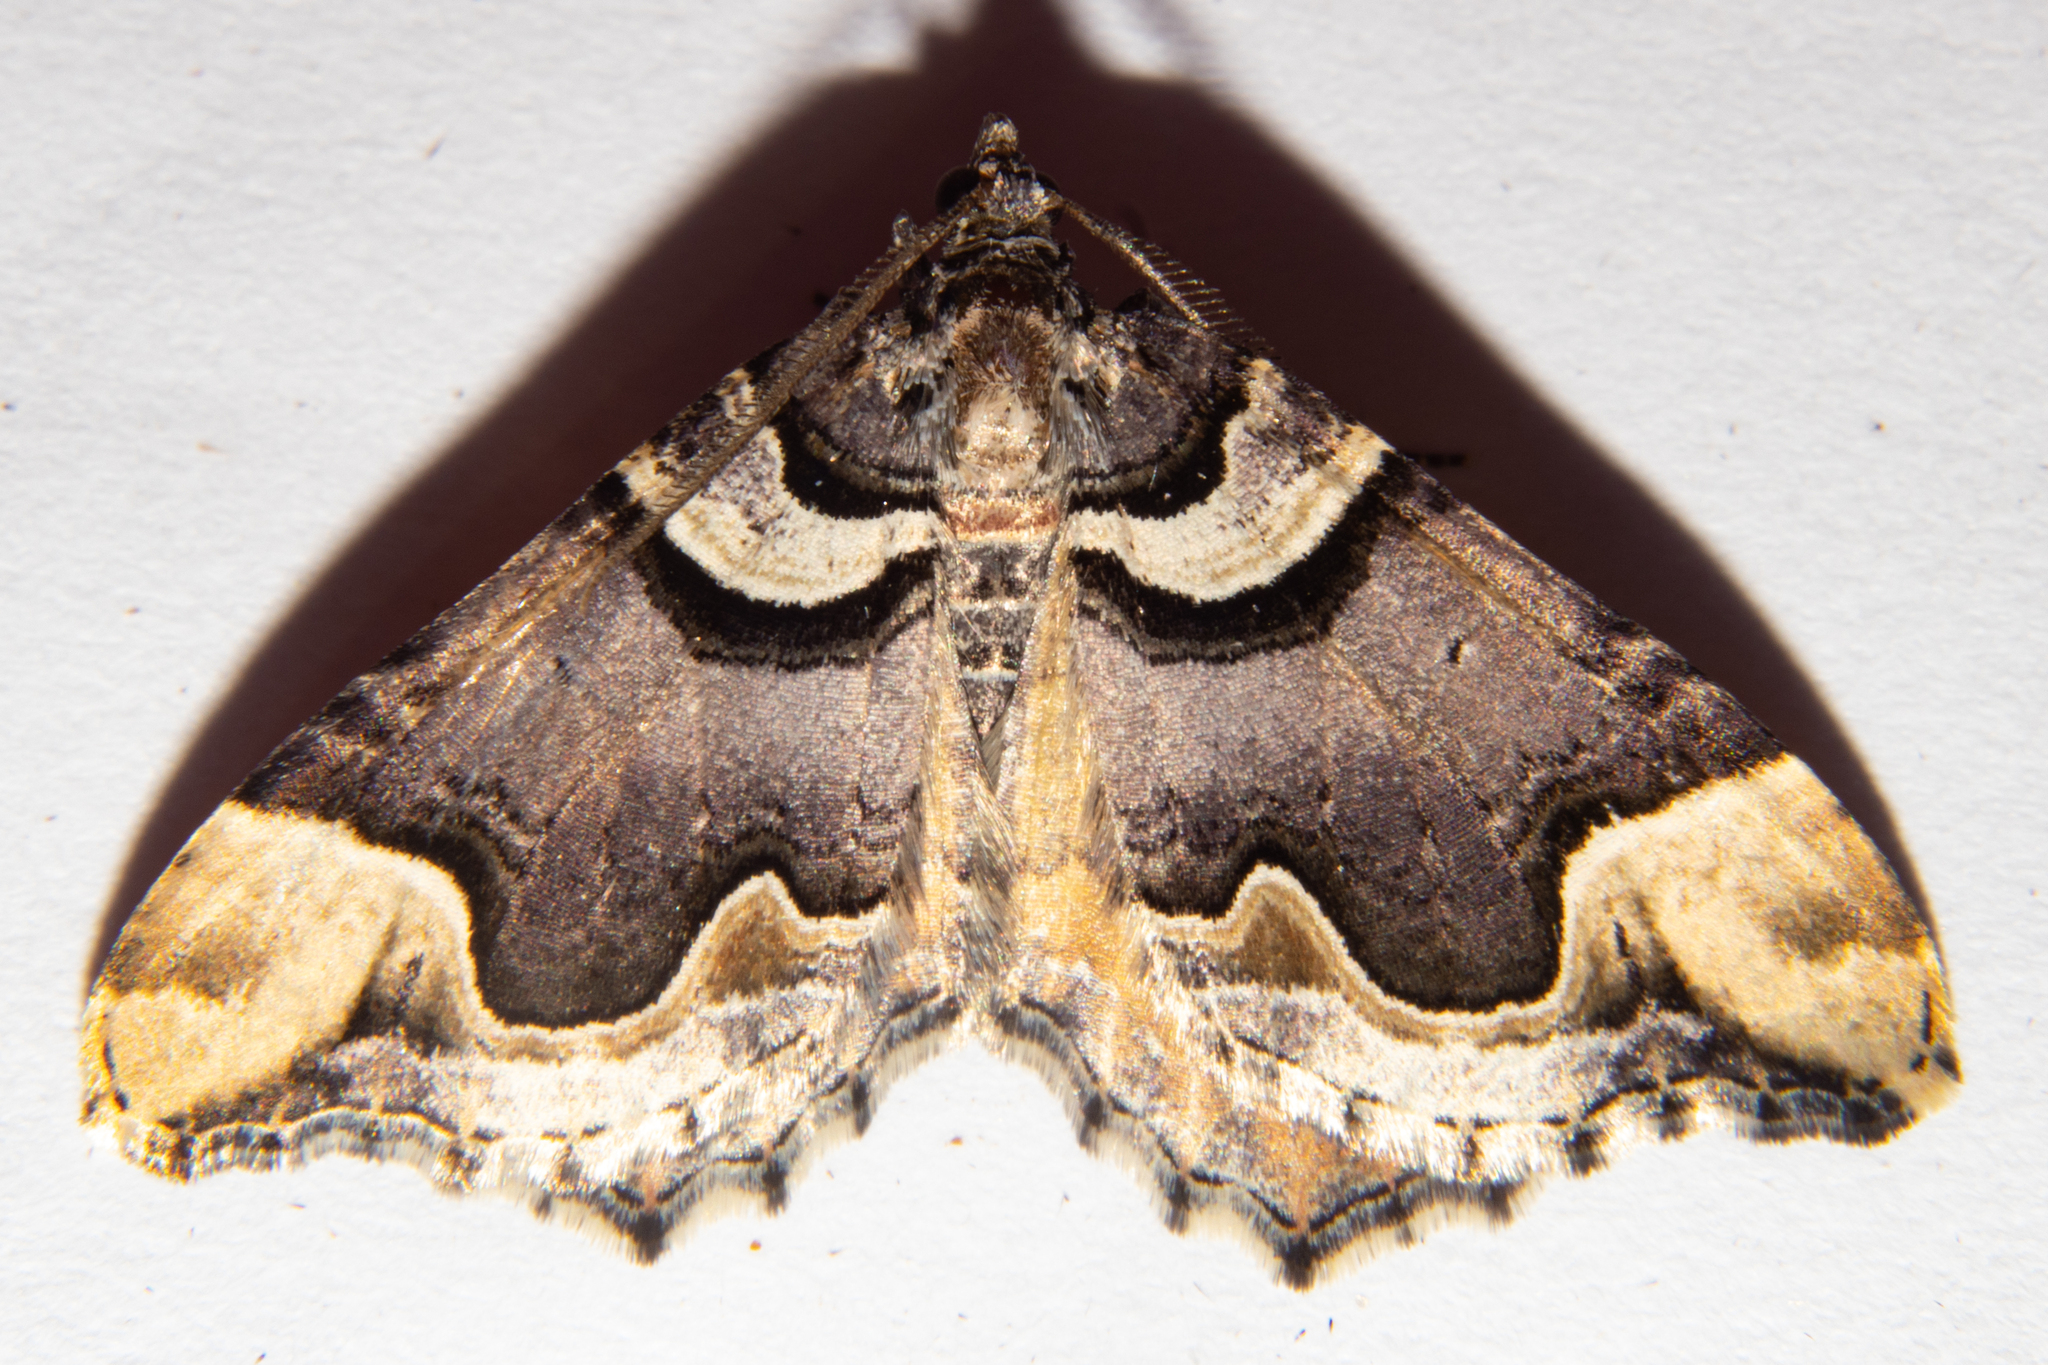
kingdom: Animalia
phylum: Arthropoda
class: Insecta
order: Lepidoptera
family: Geometridae
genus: Asaphodes
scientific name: Asaphodes chlamydota
